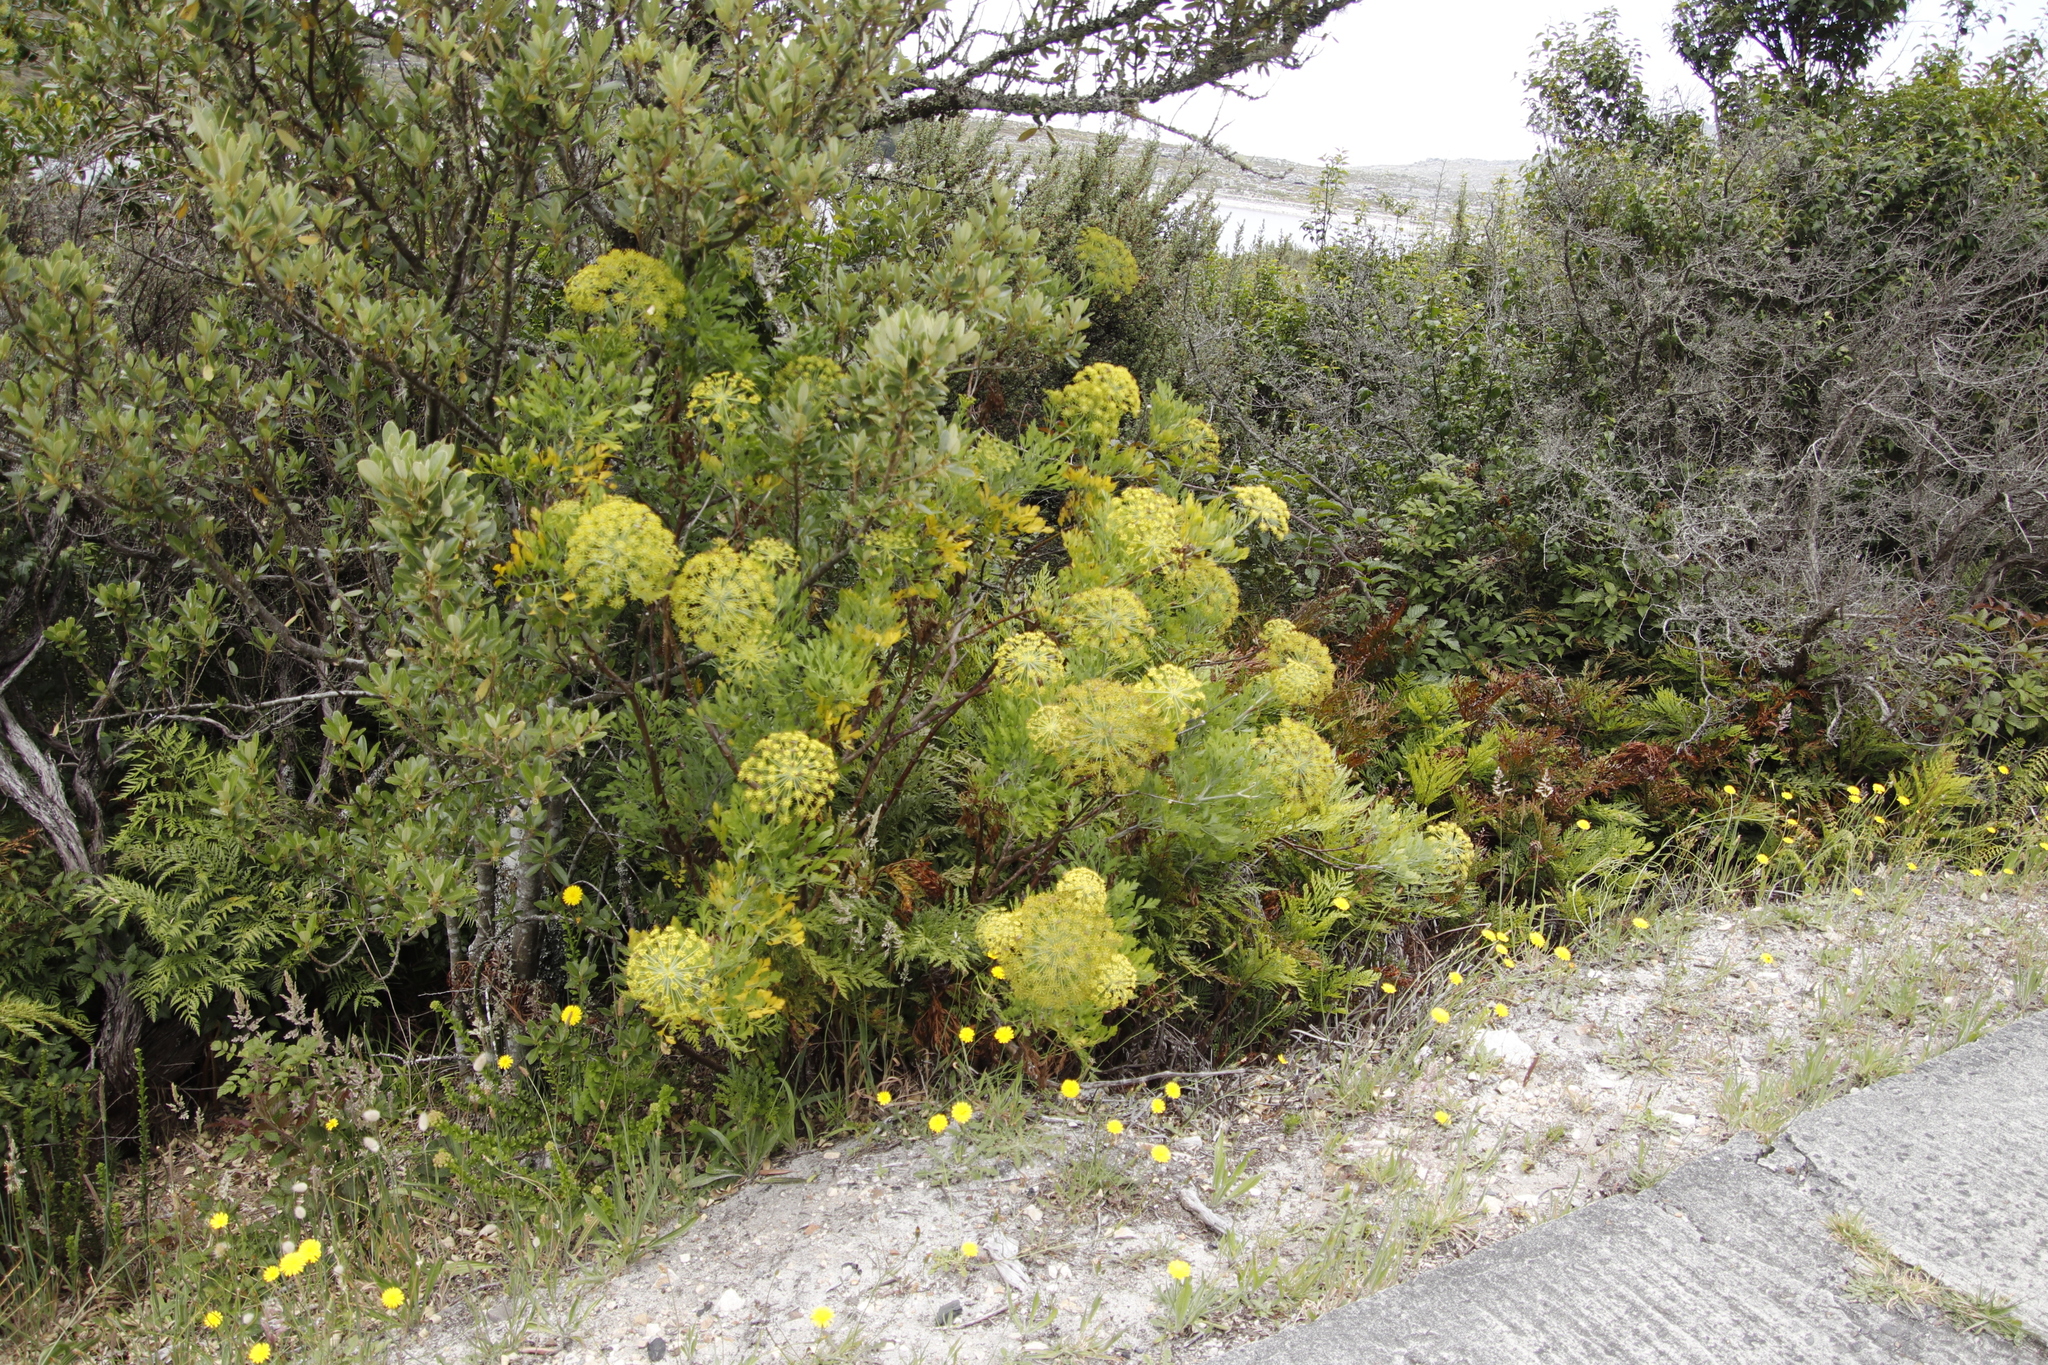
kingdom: Plantae
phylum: Tracheophyta
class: Magnoliopsida
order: Apiales
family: Apiaceae
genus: Notobubon
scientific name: Notobubon galbanum
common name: Blisterbush
